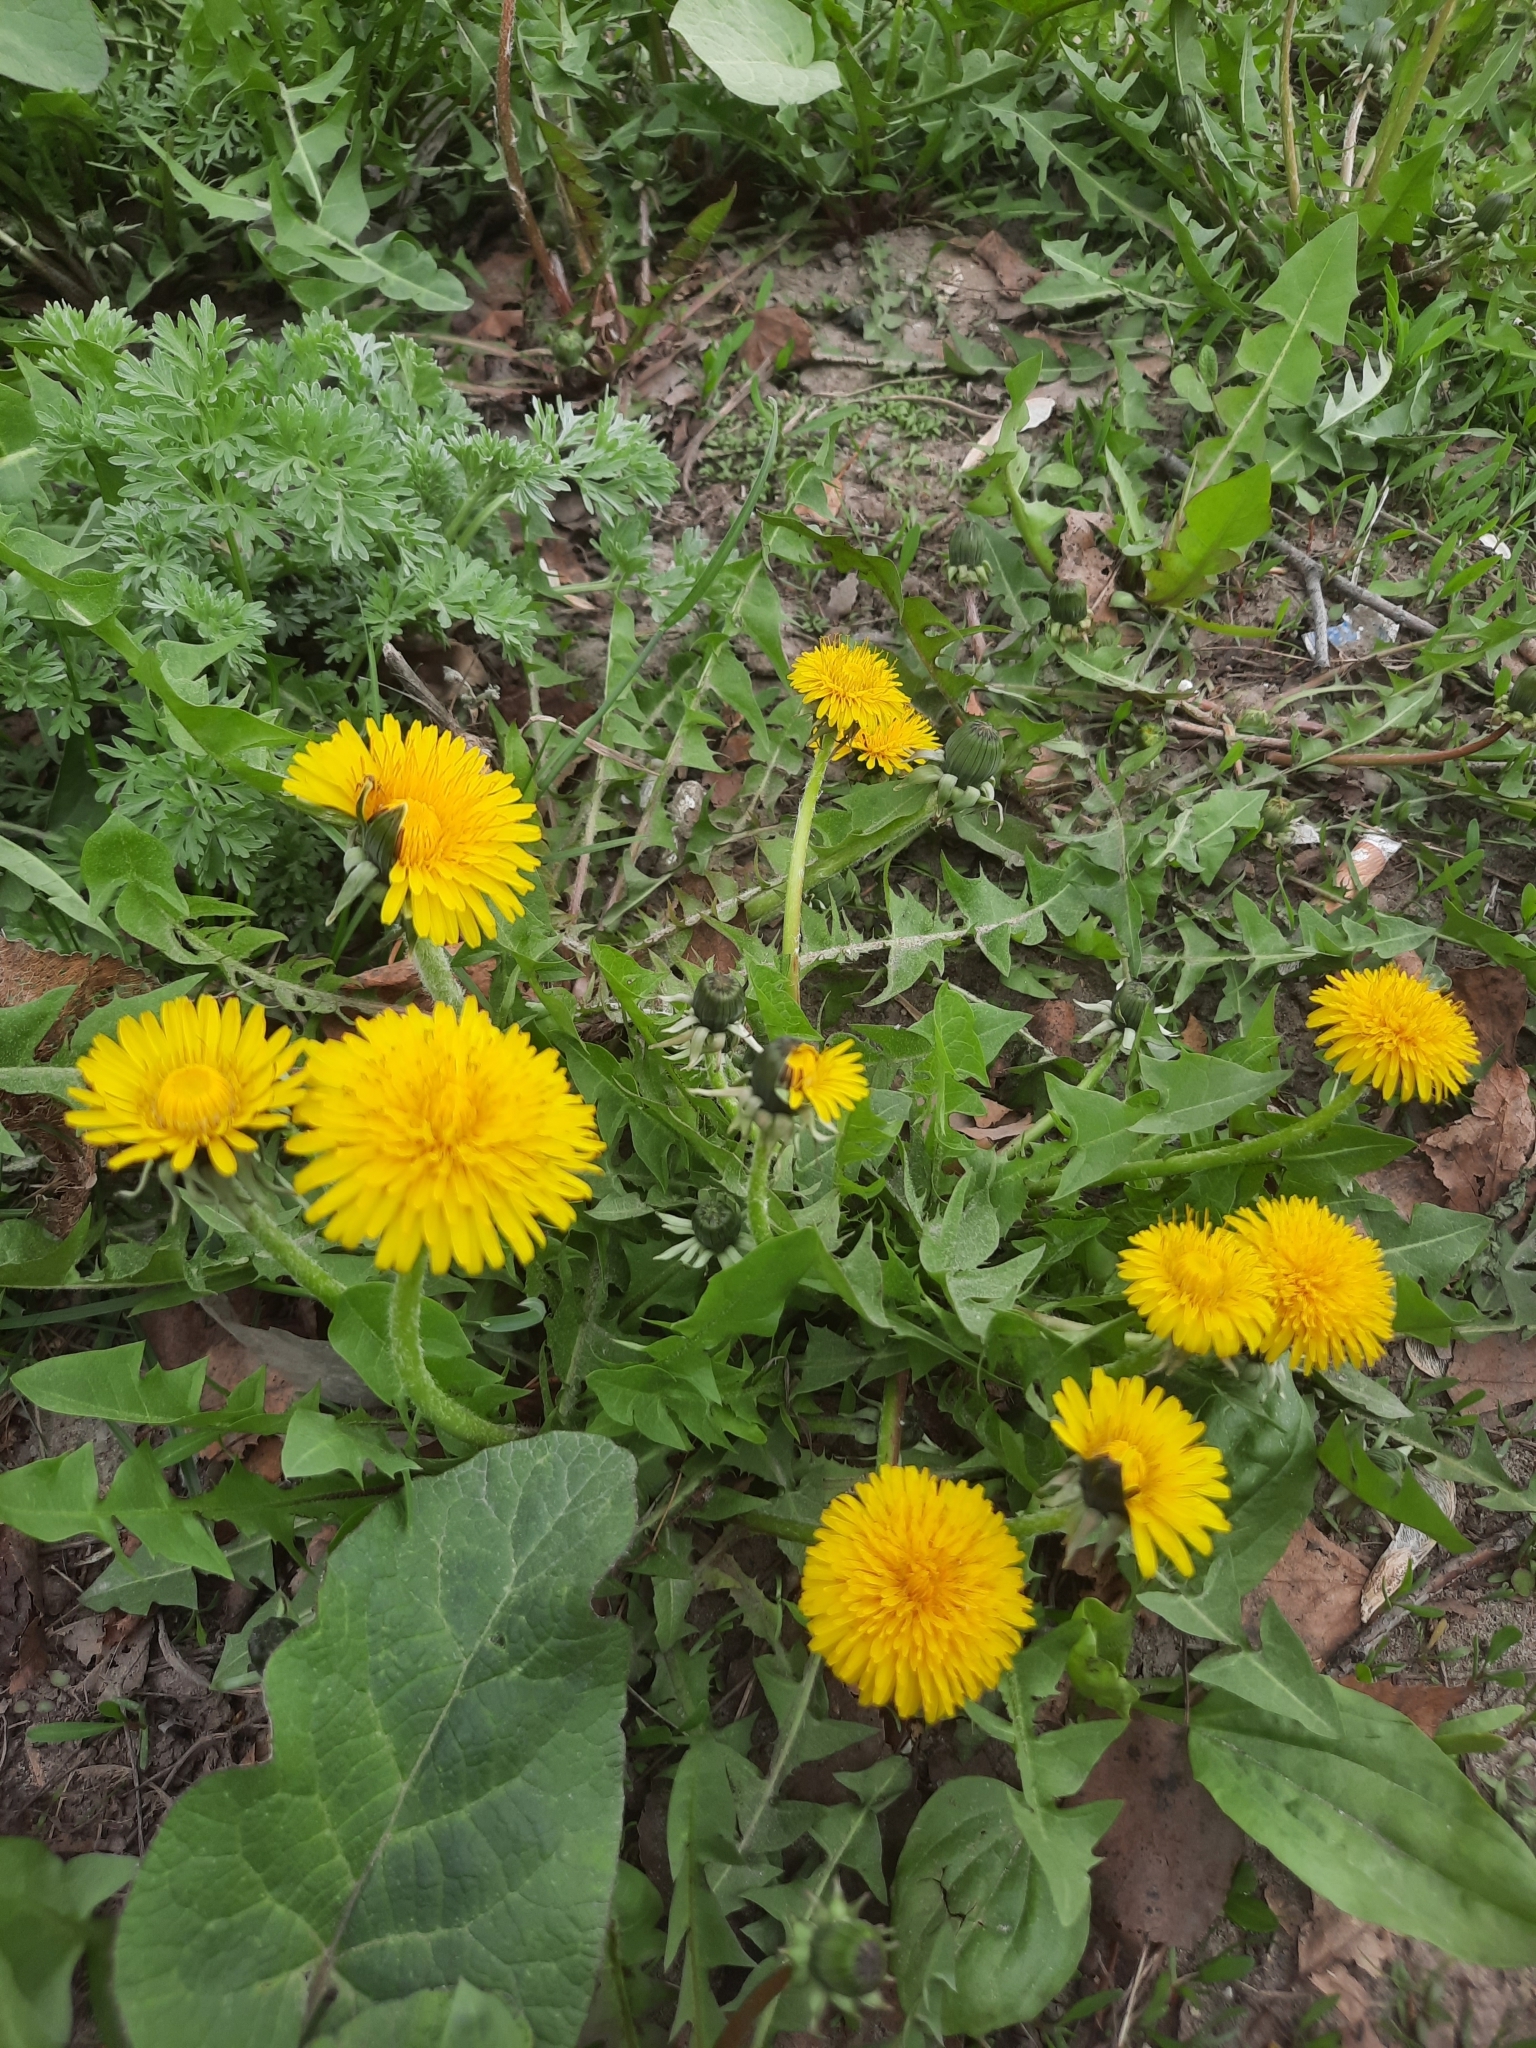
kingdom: Plantae
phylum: Tracheophyta
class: Magnoliopsida
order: Asterales
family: Asteraceae
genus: Taraxacum
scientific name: Taraxacum officinale
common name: Common dandelion
